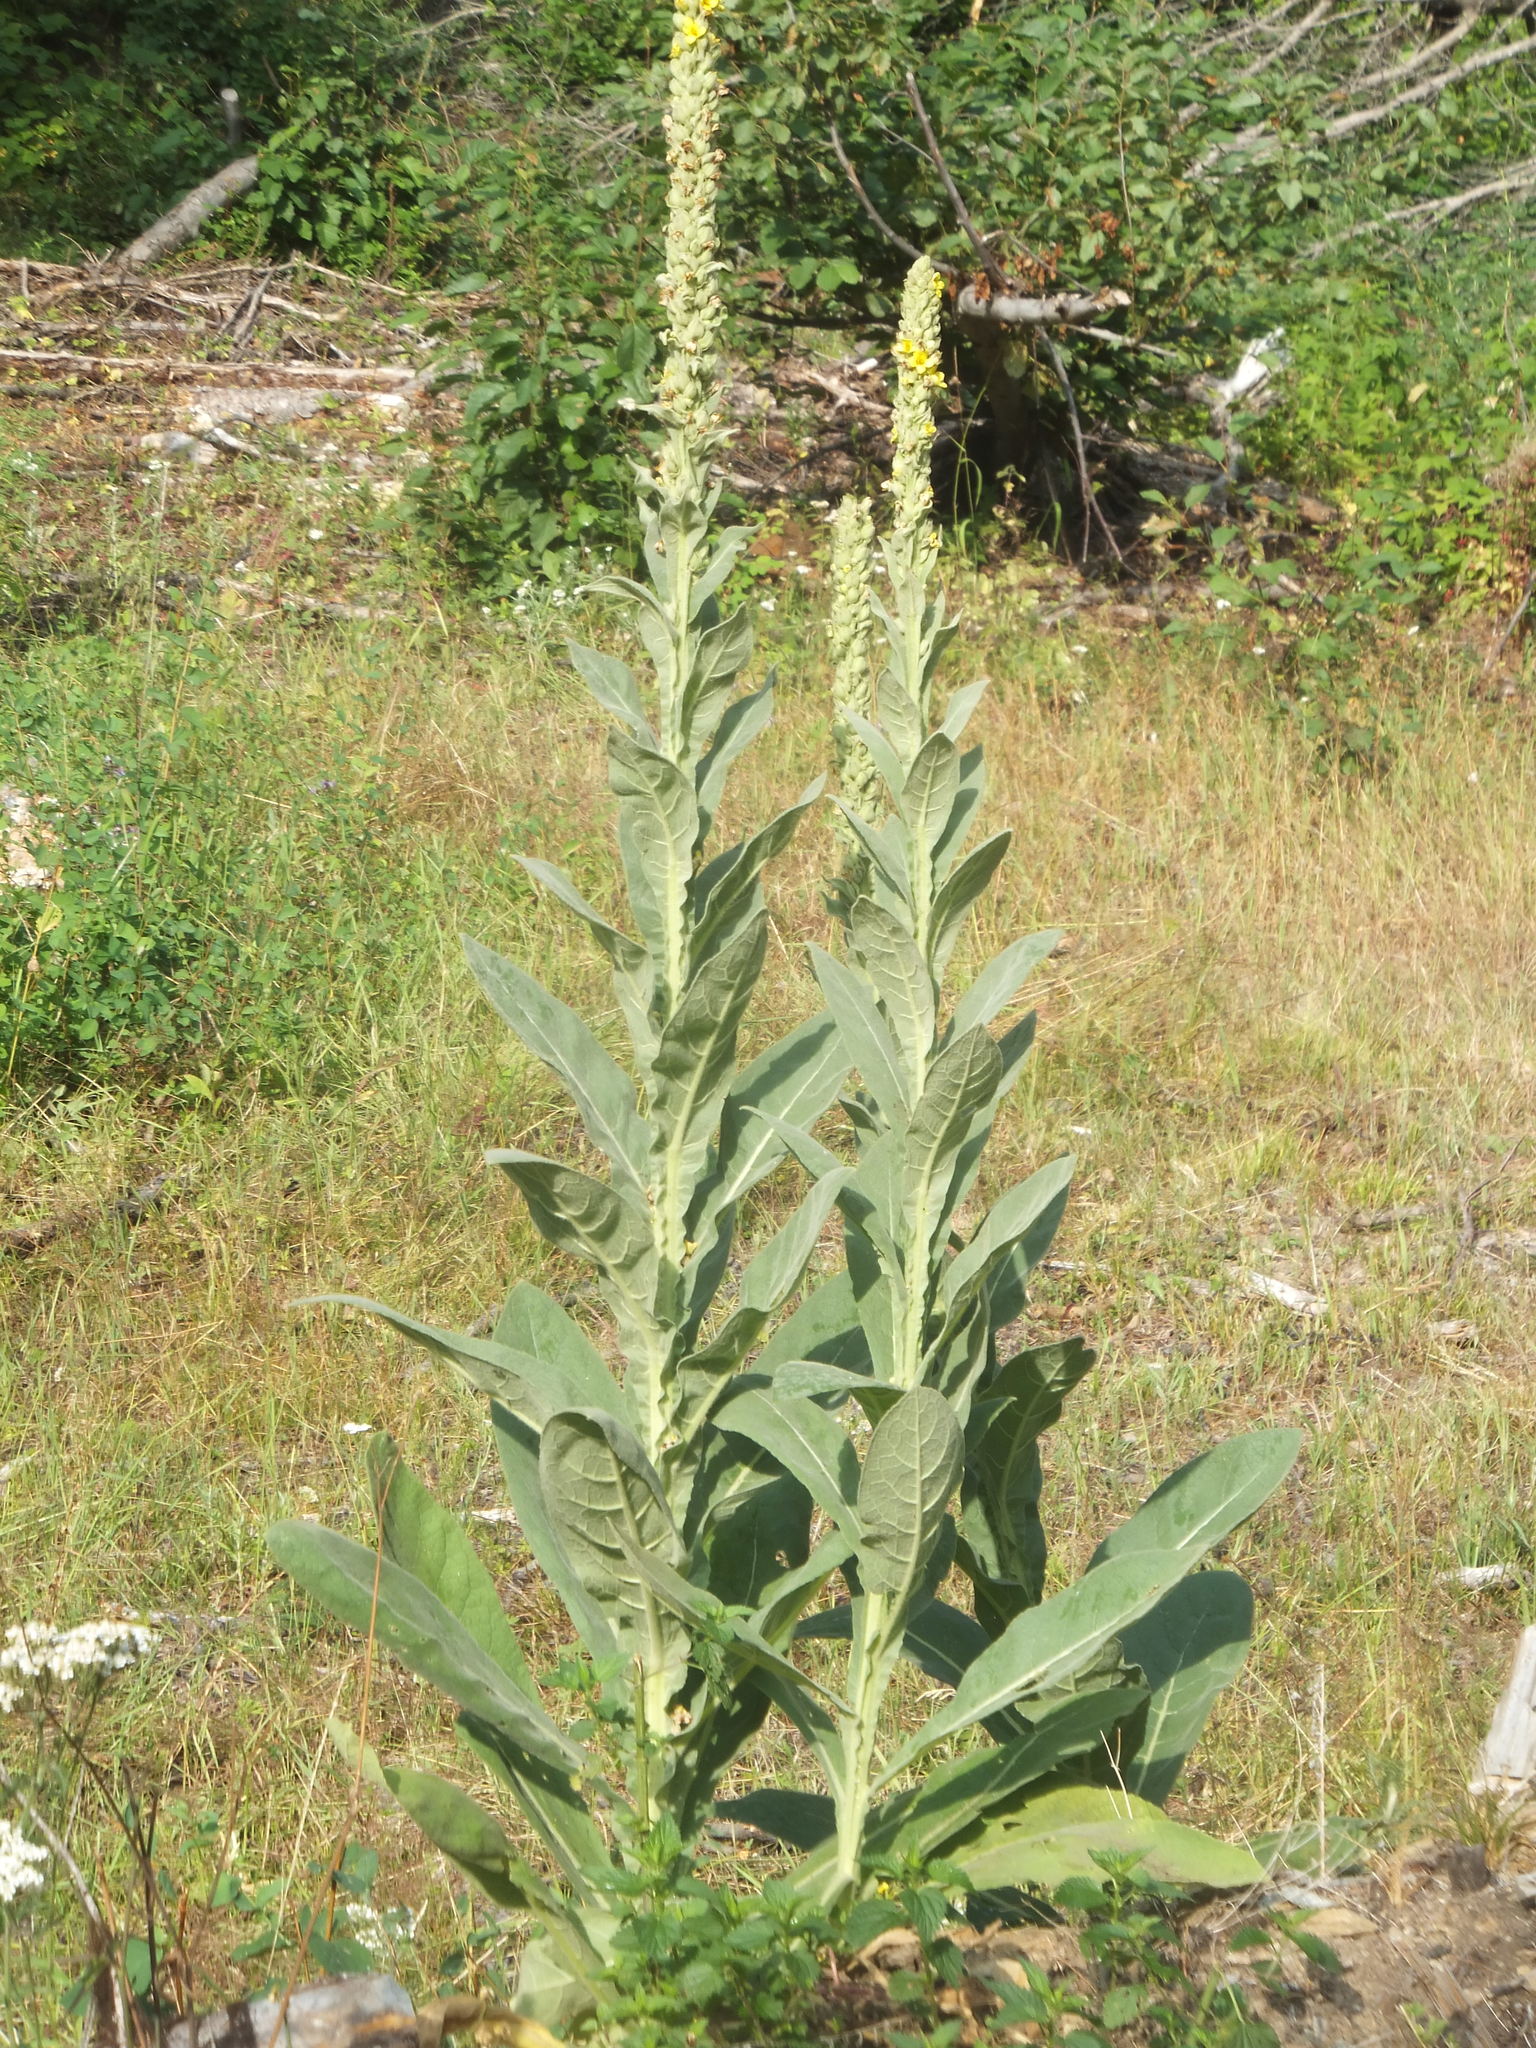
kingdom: Plantae
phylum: Tracheophyta
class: Magnoliopsida
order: Lamiales
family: Scrophulariaceae
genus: Verbascum
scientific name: Verbascum thapsus
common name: Common mullein
